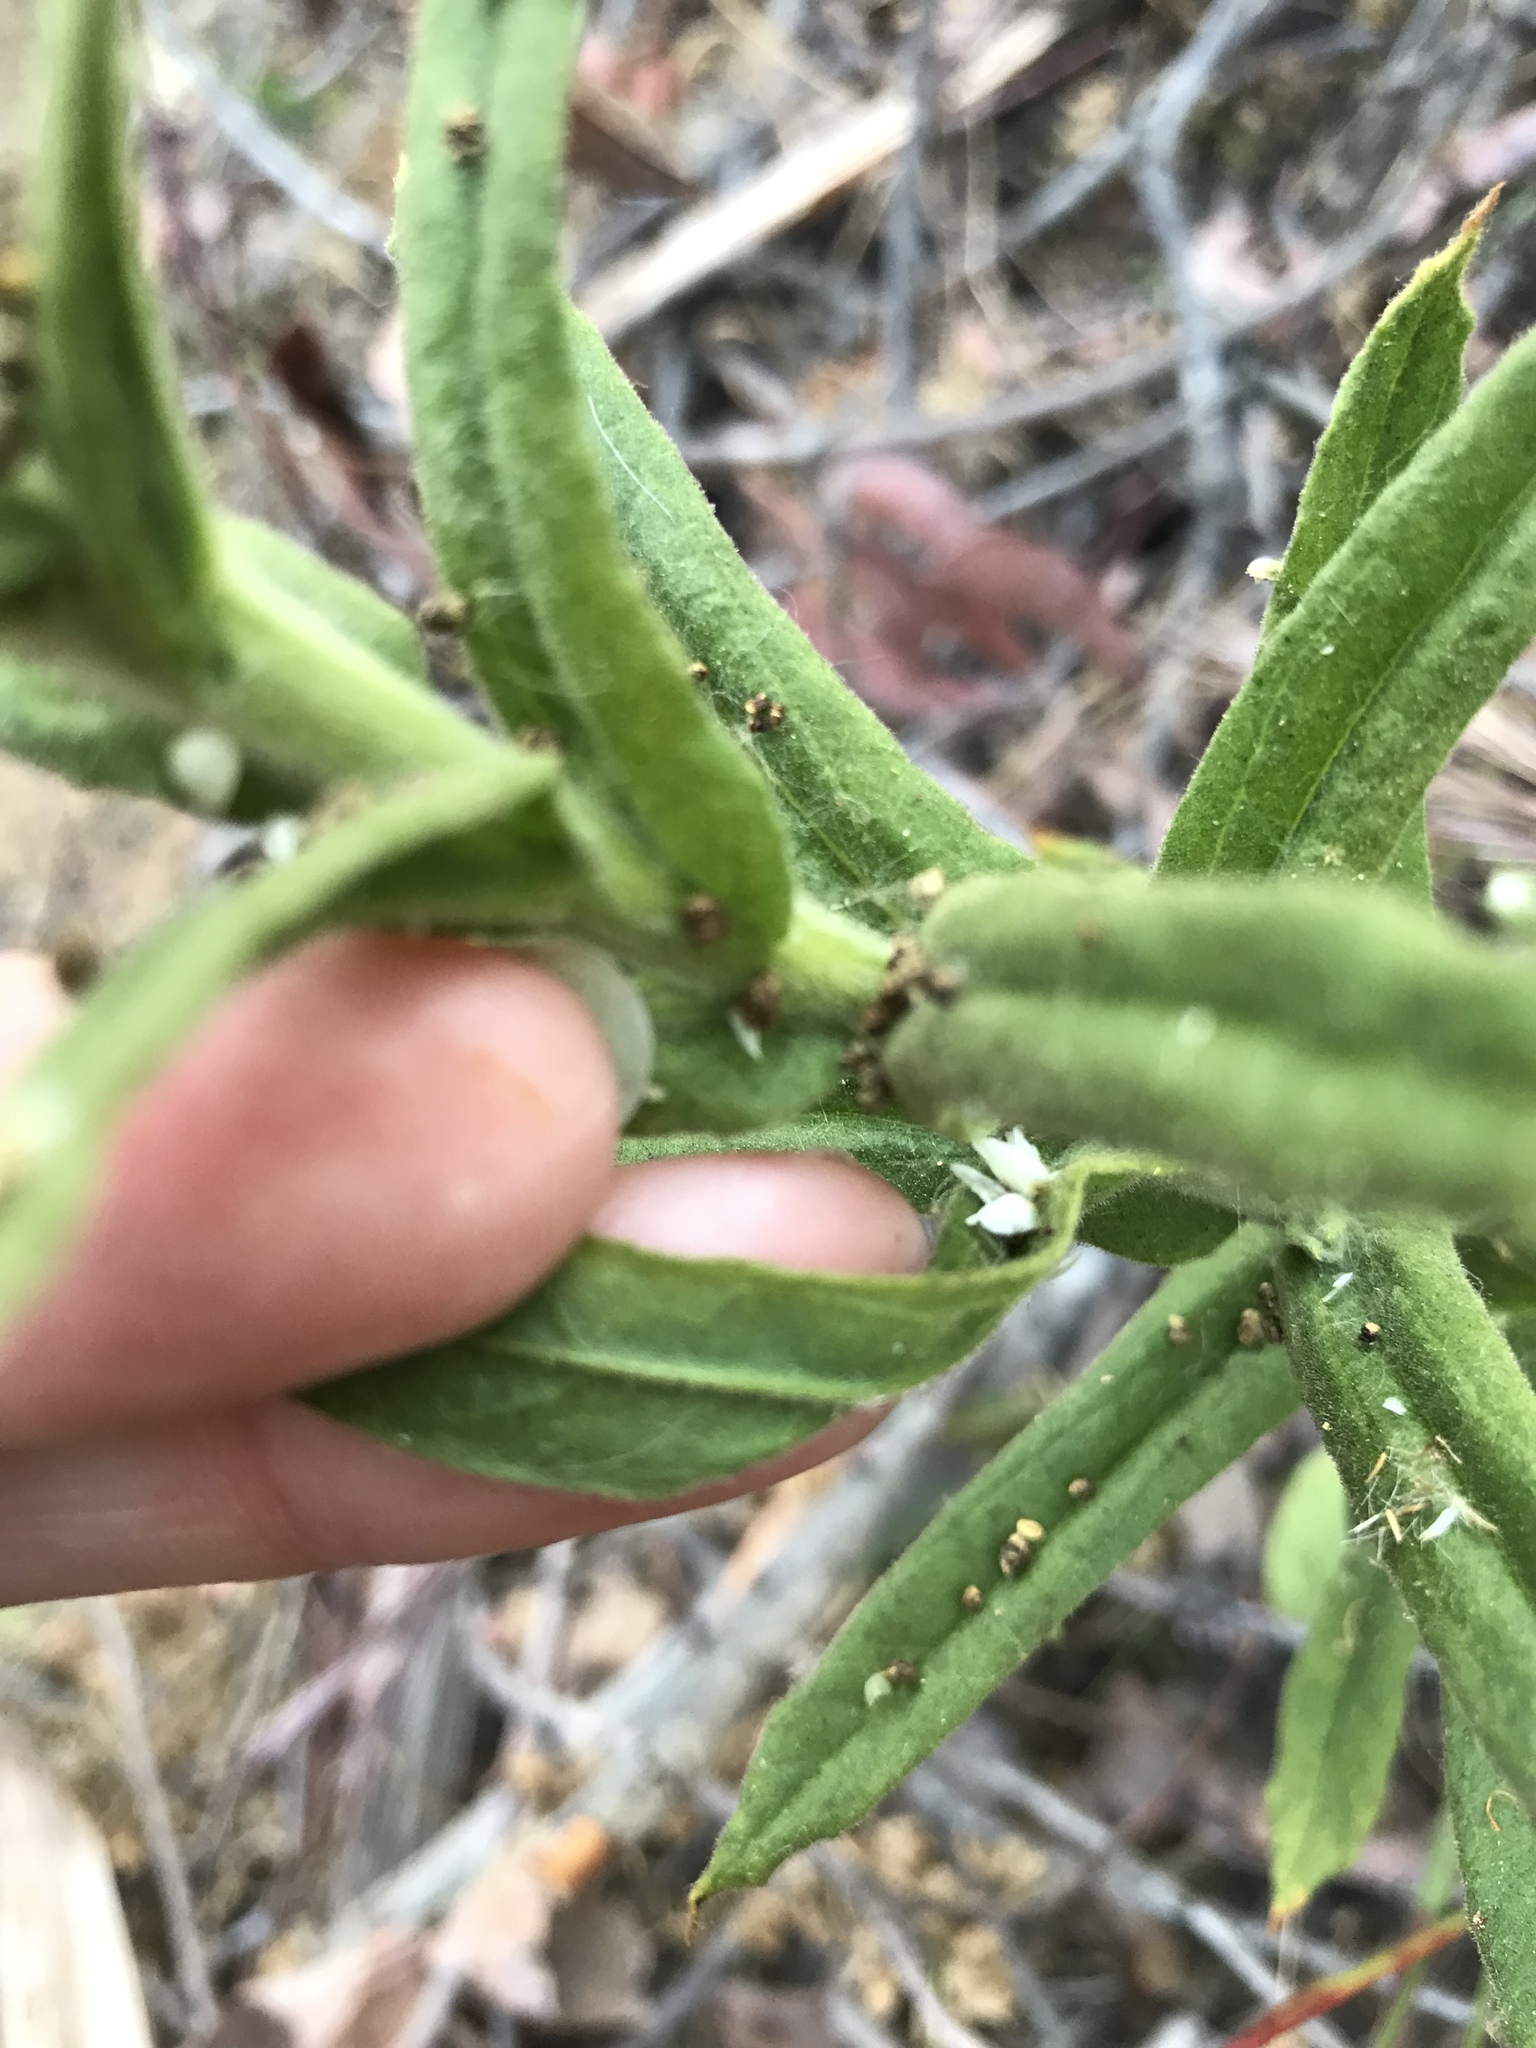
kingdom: Plantae
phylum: Tracheophyta
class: Magnoliopsida
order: Asterales
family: Asteraceae
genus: Pseudognaphalium
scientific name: Pseudognaphalium californicum
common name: California rabbit-tobacco
